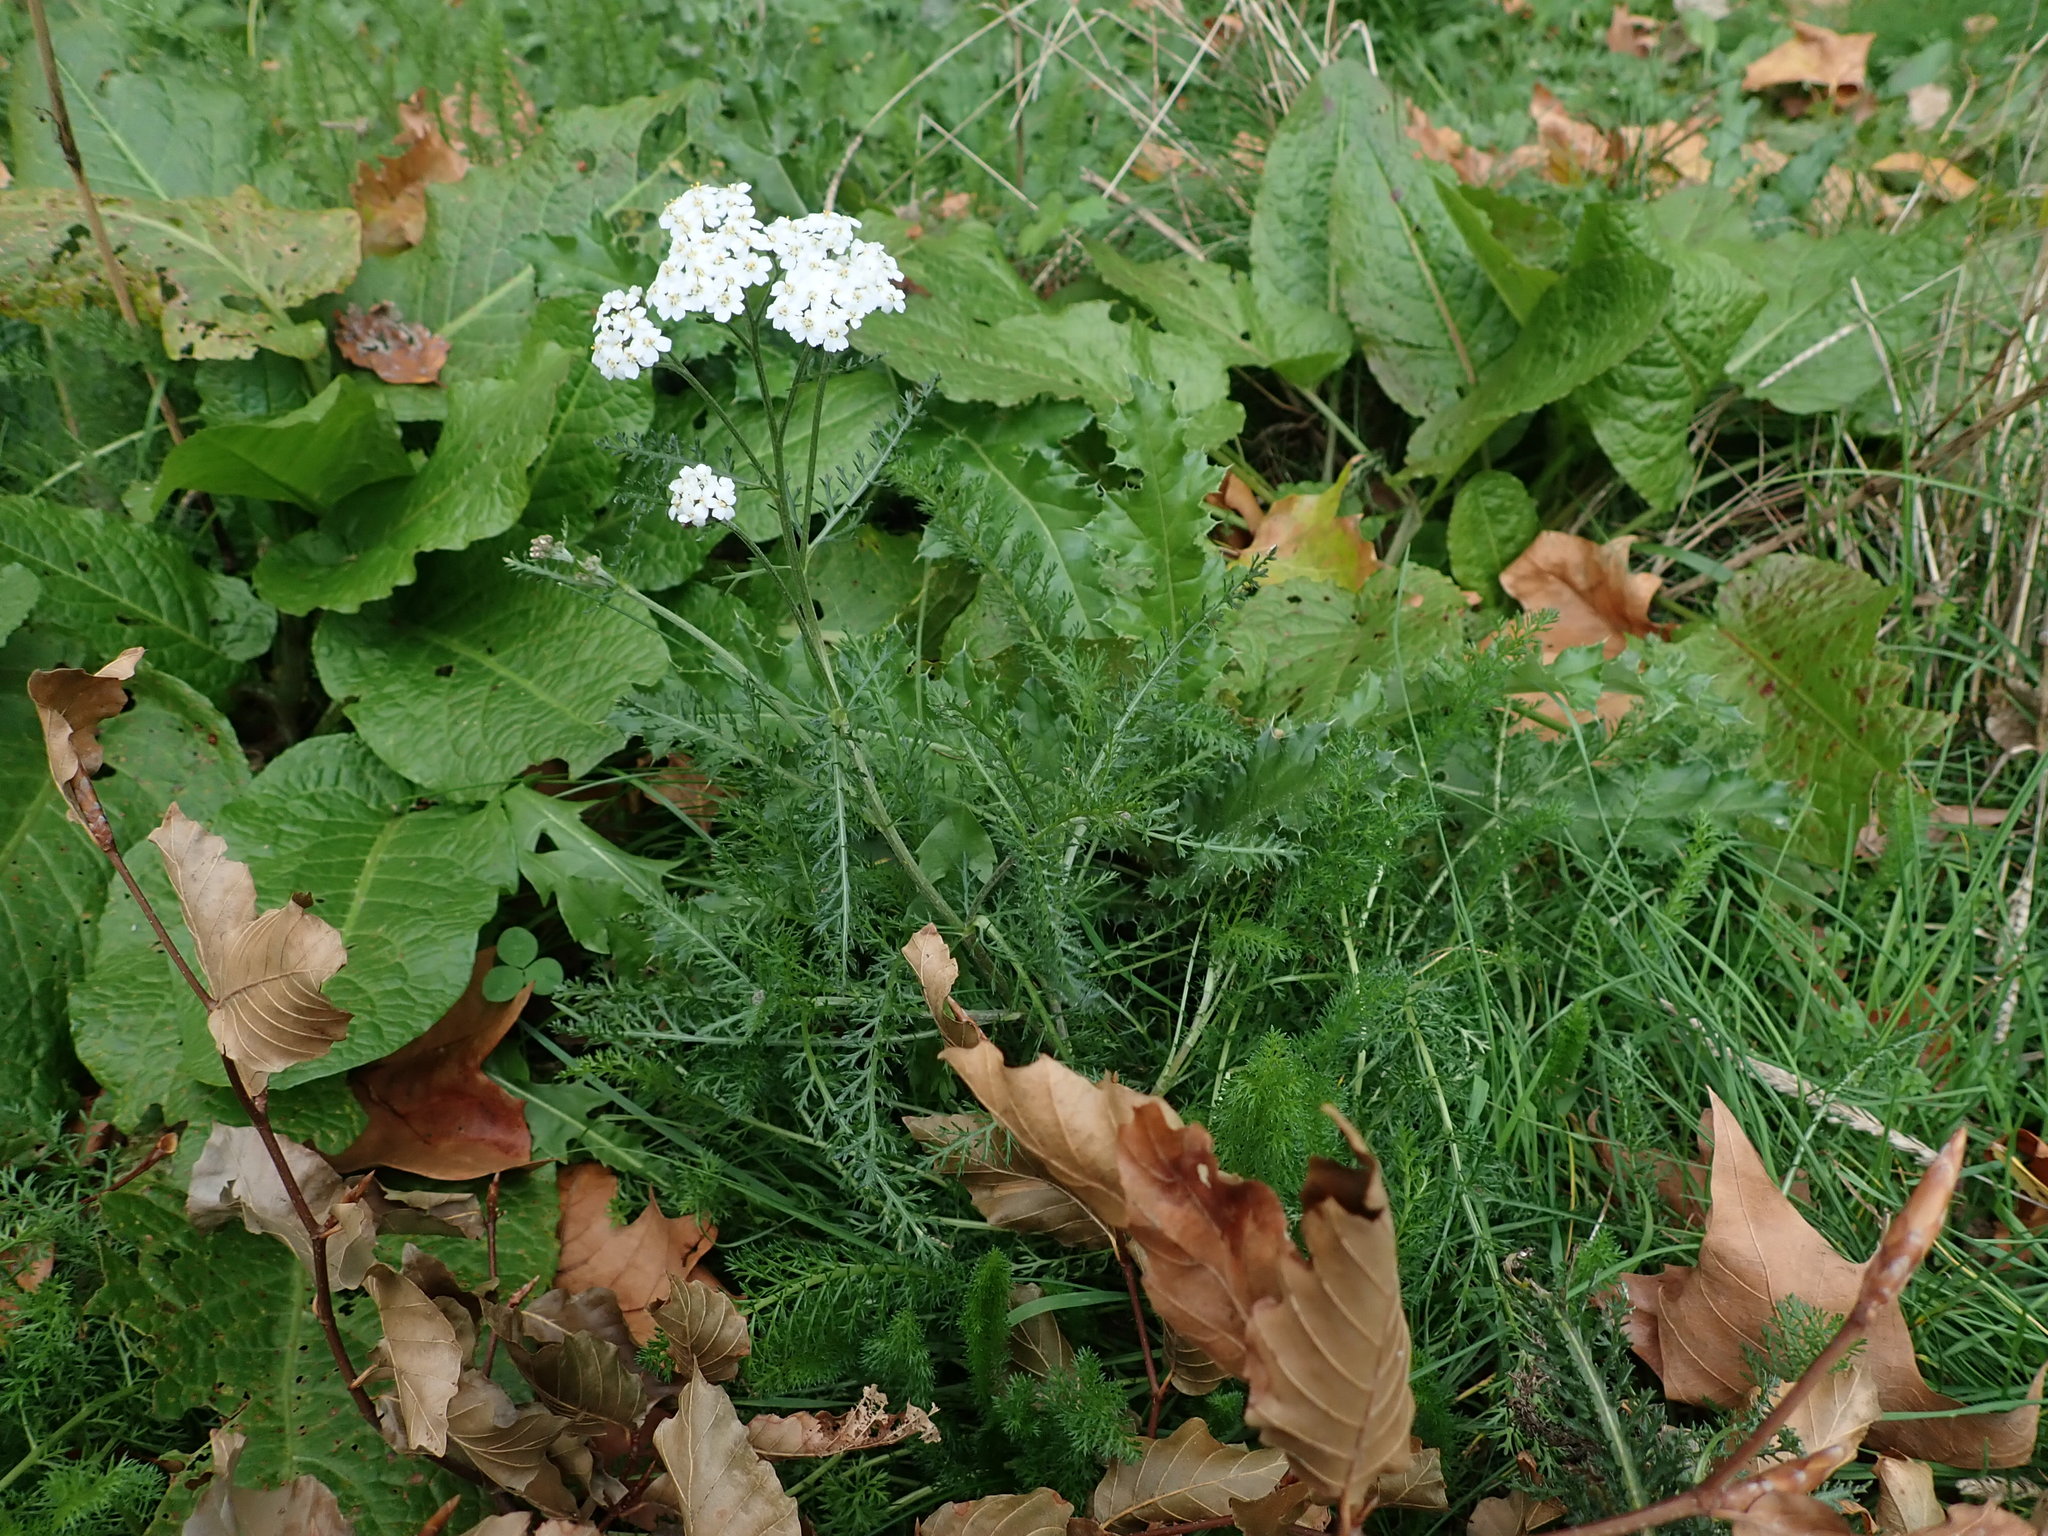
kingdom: Plantae
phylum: Tracheophyta
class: Magnoliopsida
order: Asterales
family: Asteraceae
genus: Achillea
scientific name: Achillea millefolium
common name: Yarrow
